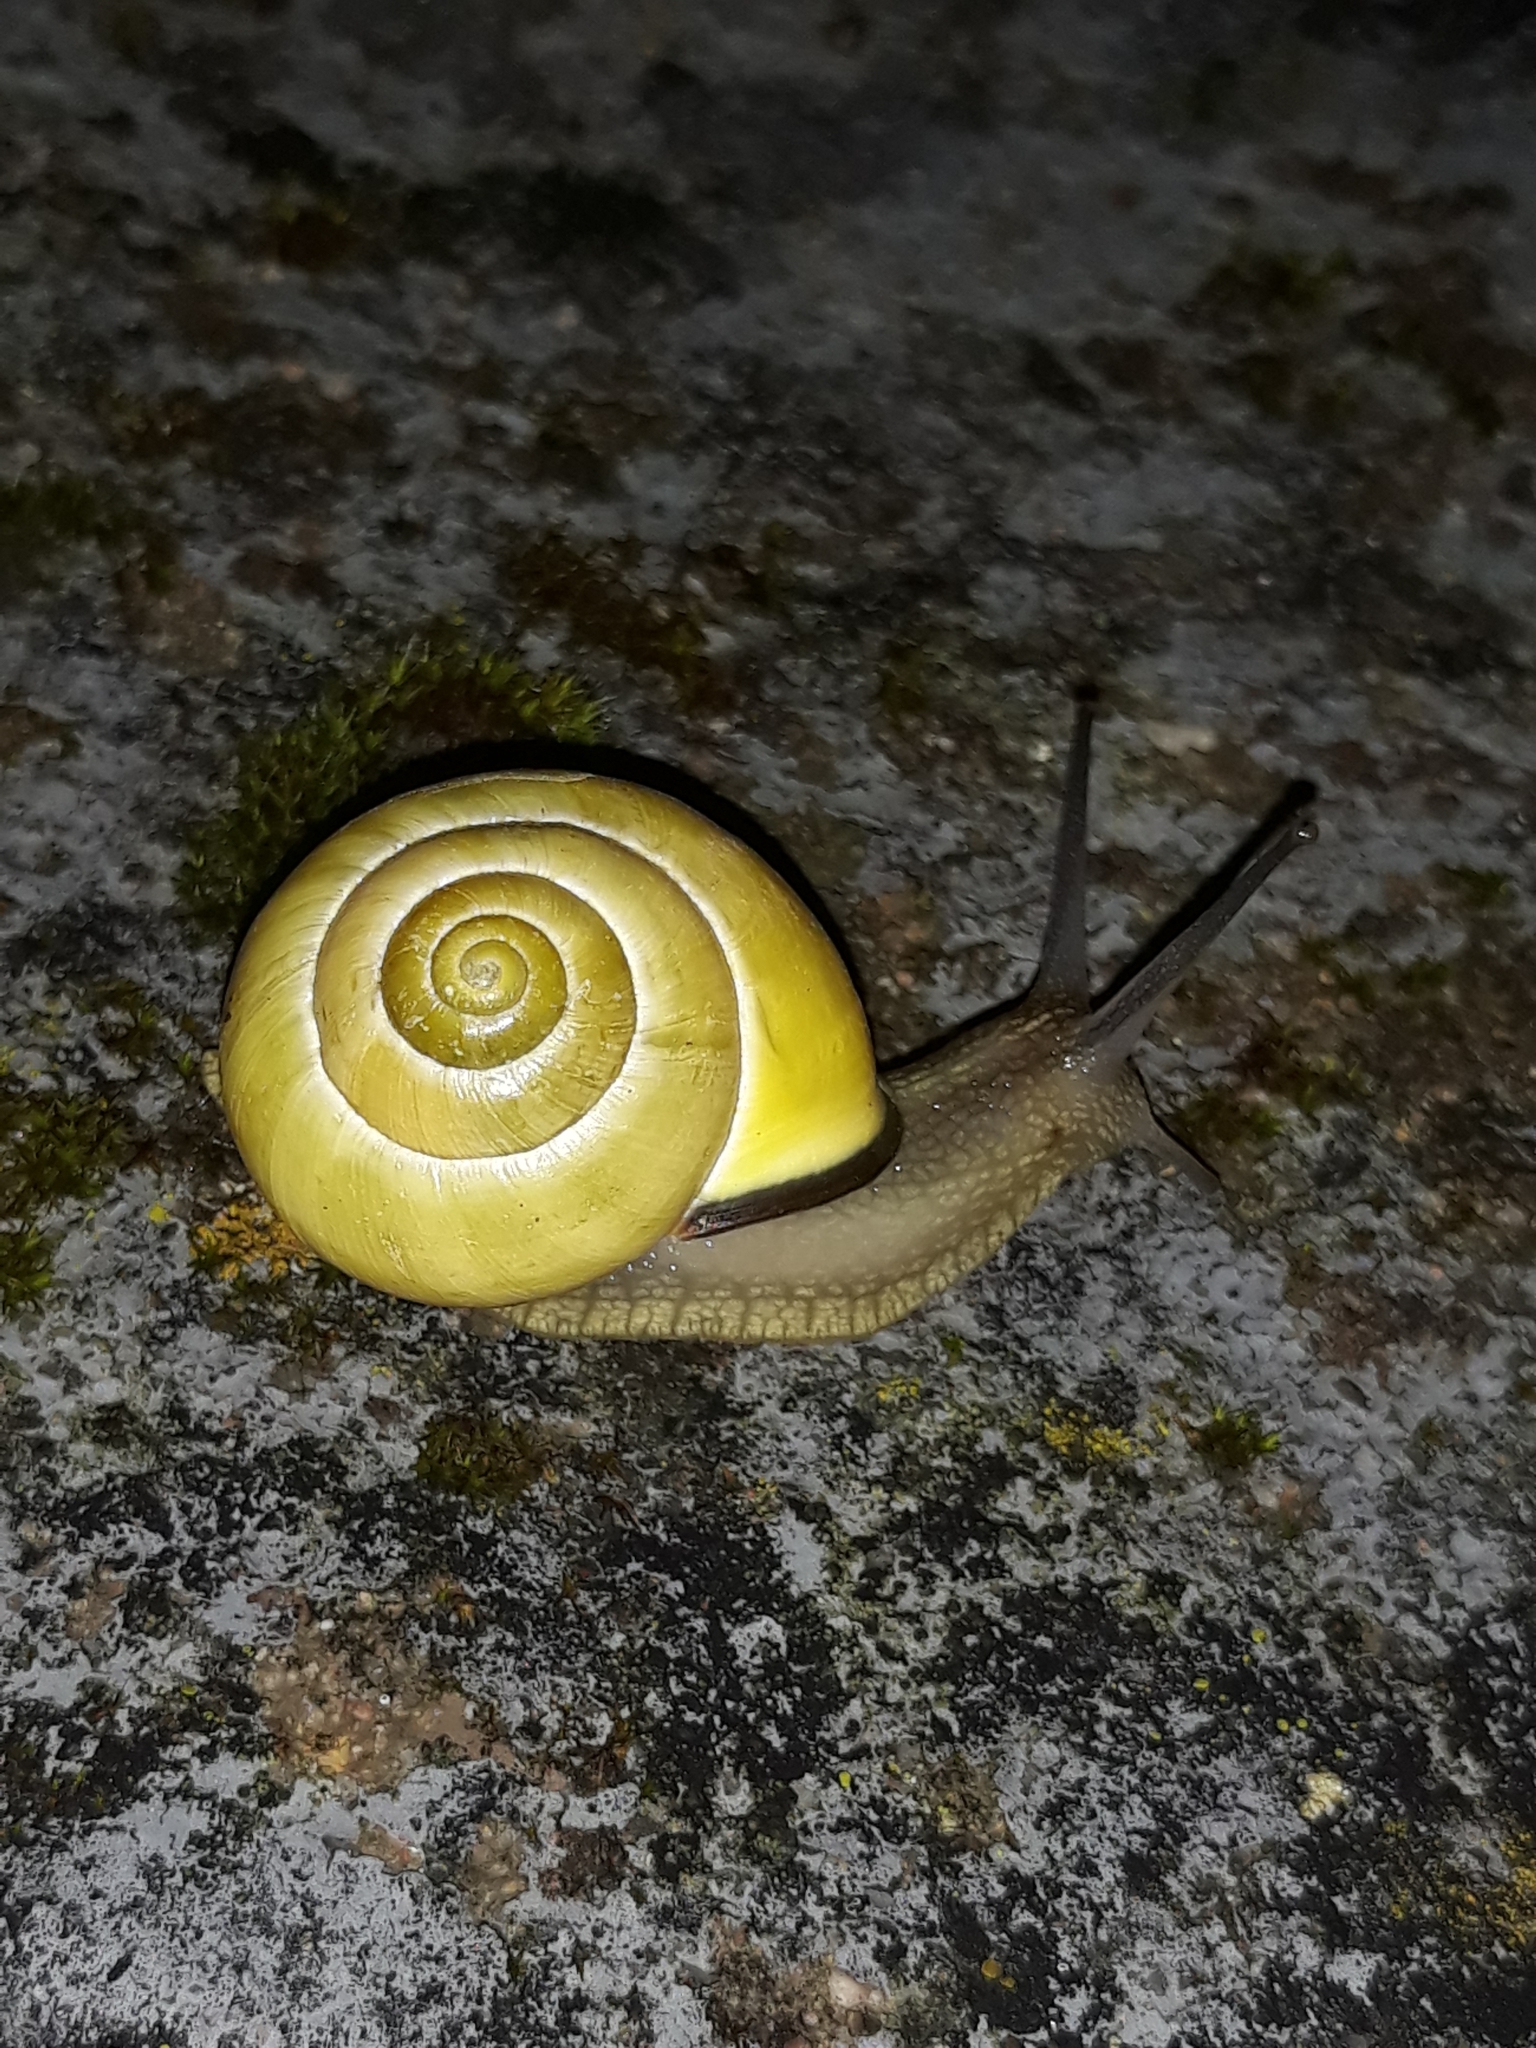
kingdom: Animalia
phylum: Mollusca
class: Gastropoda
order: Stylommatophora
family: Helicidae
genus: Cepaea
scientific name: Cepaea nemoralis
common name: Grovesnail
